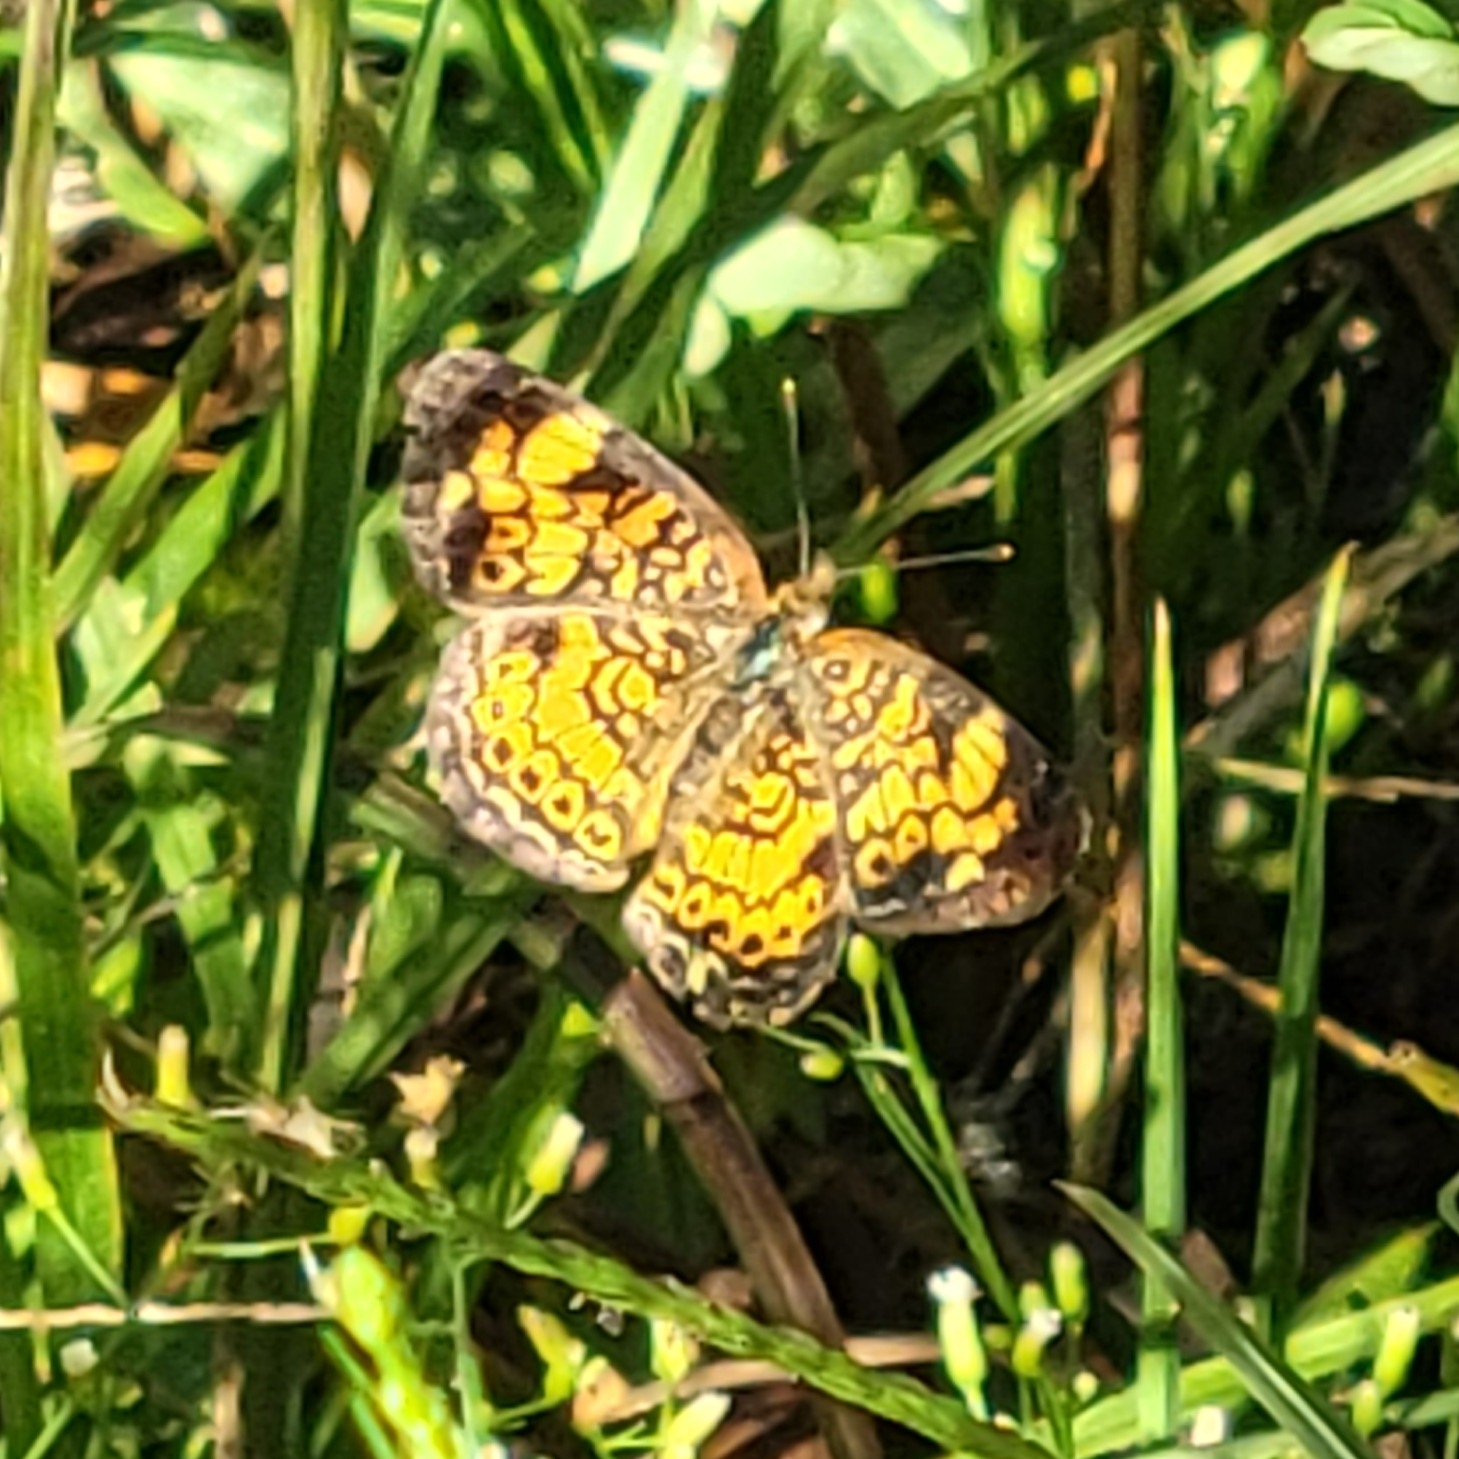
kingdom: Animalia
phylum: Arthropoda
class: Insecta
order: Lepidoptera
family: Nymphalidae
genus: Phyciodes
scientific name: Phyciodes tharos
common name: Pearl crescent
